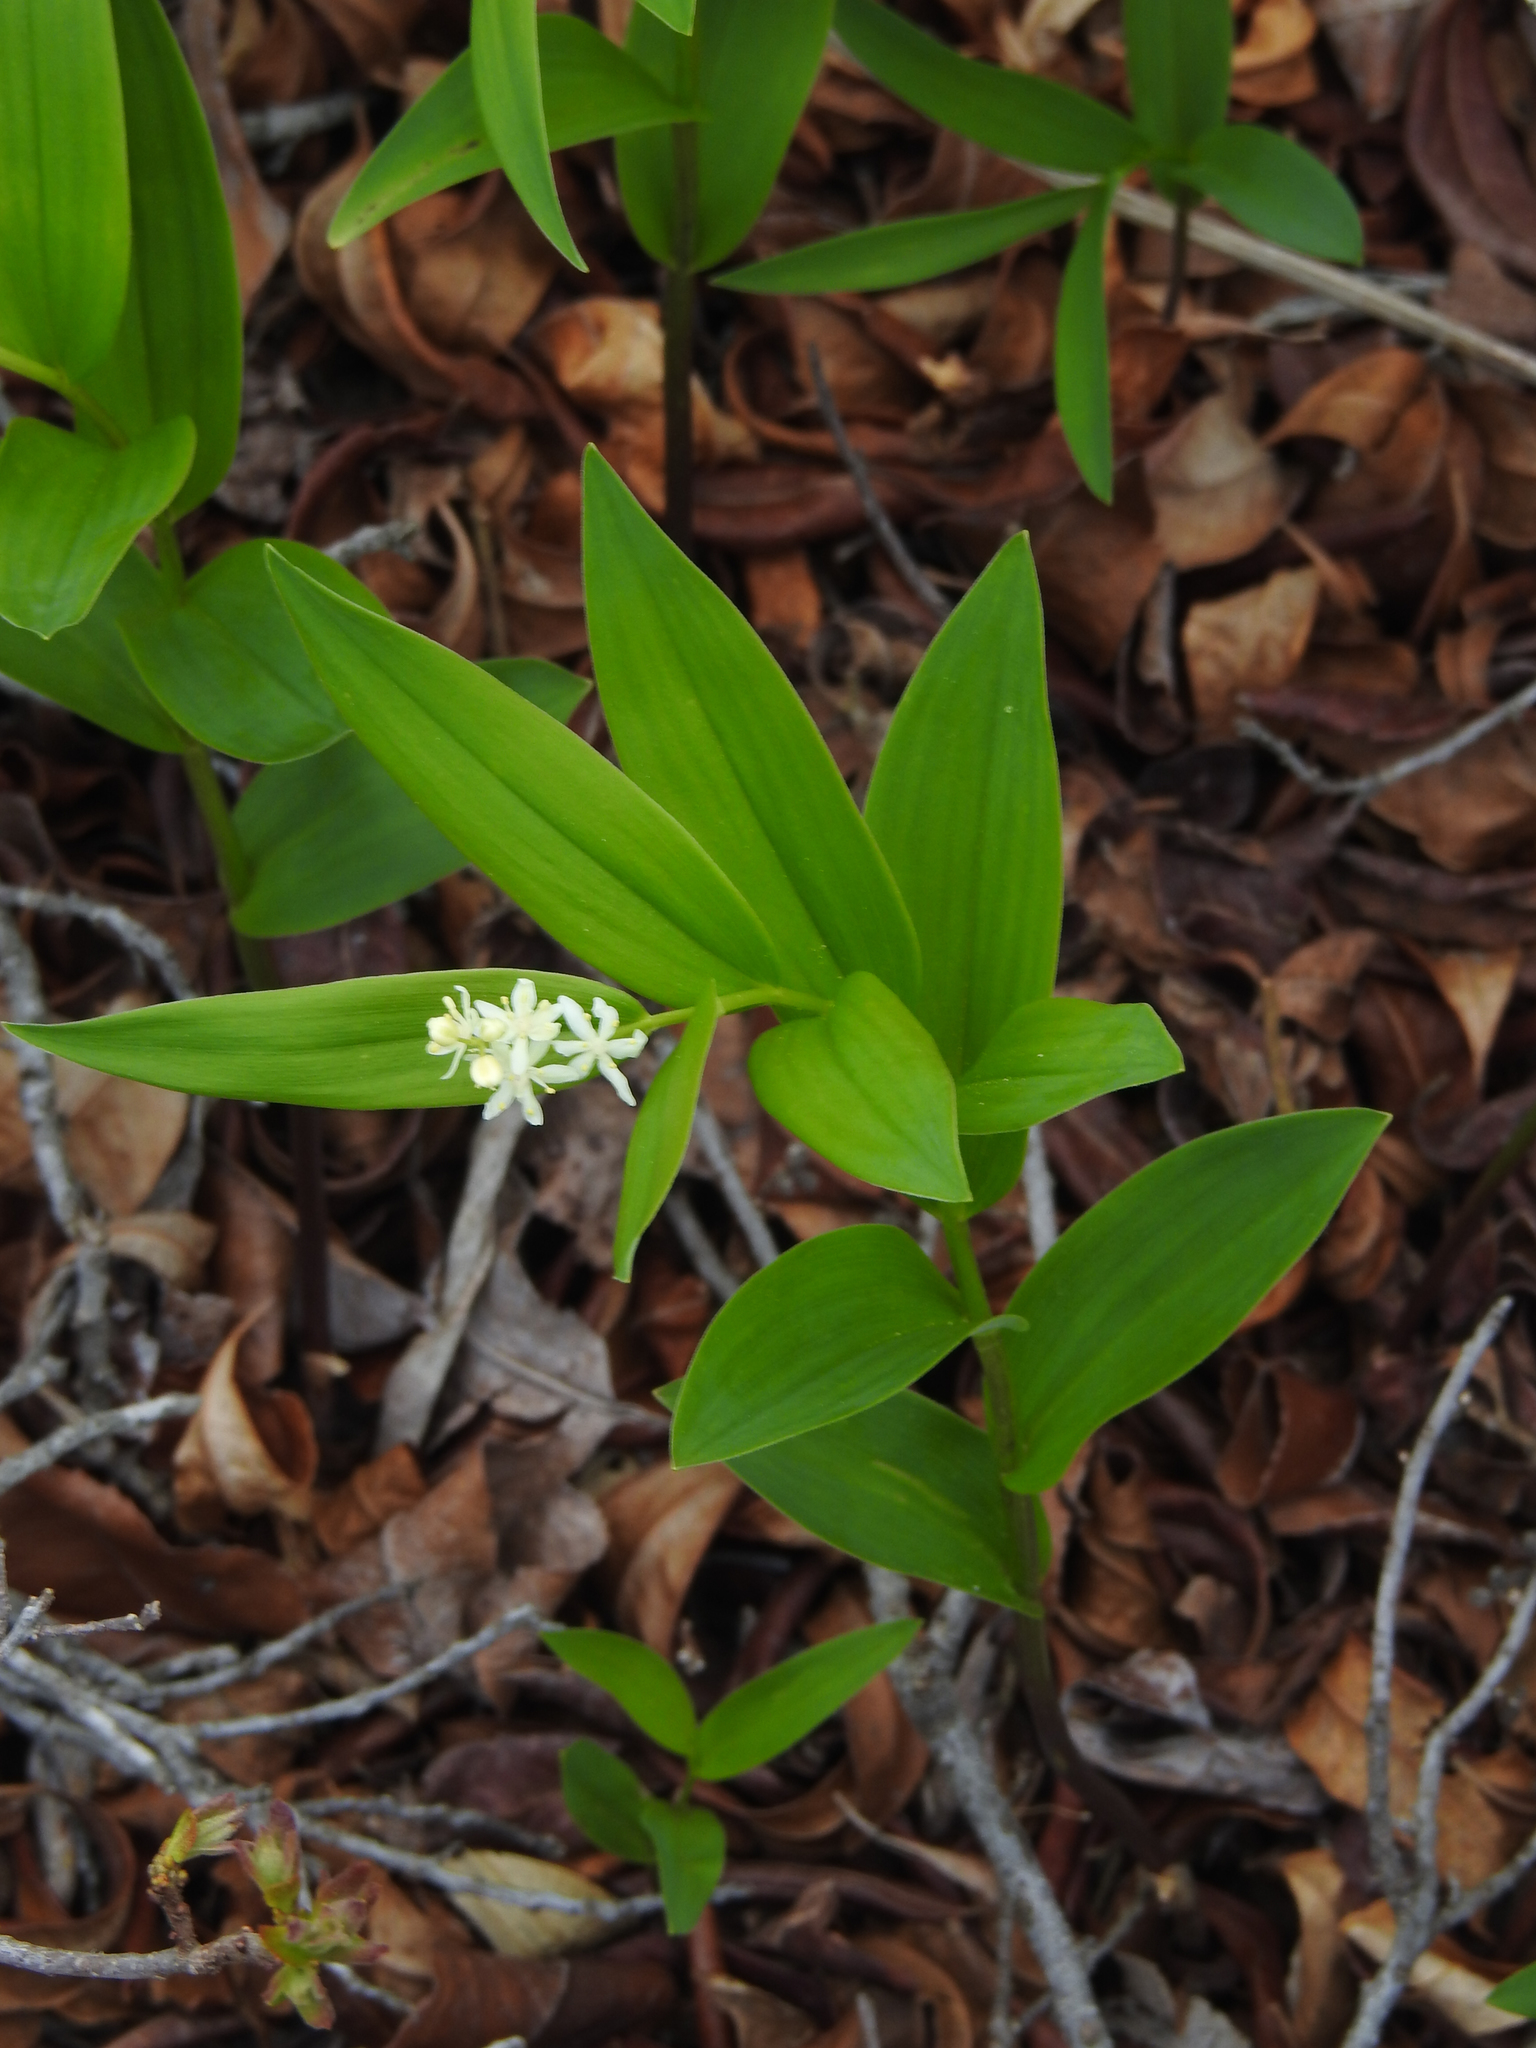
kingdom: Plantae
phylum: Tracheophyta
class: Liliopsida
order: Asparagales
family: Asparagaceae
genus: Maianthemum
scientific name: Maianthemum stellatum
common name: Little false solomon's seal
